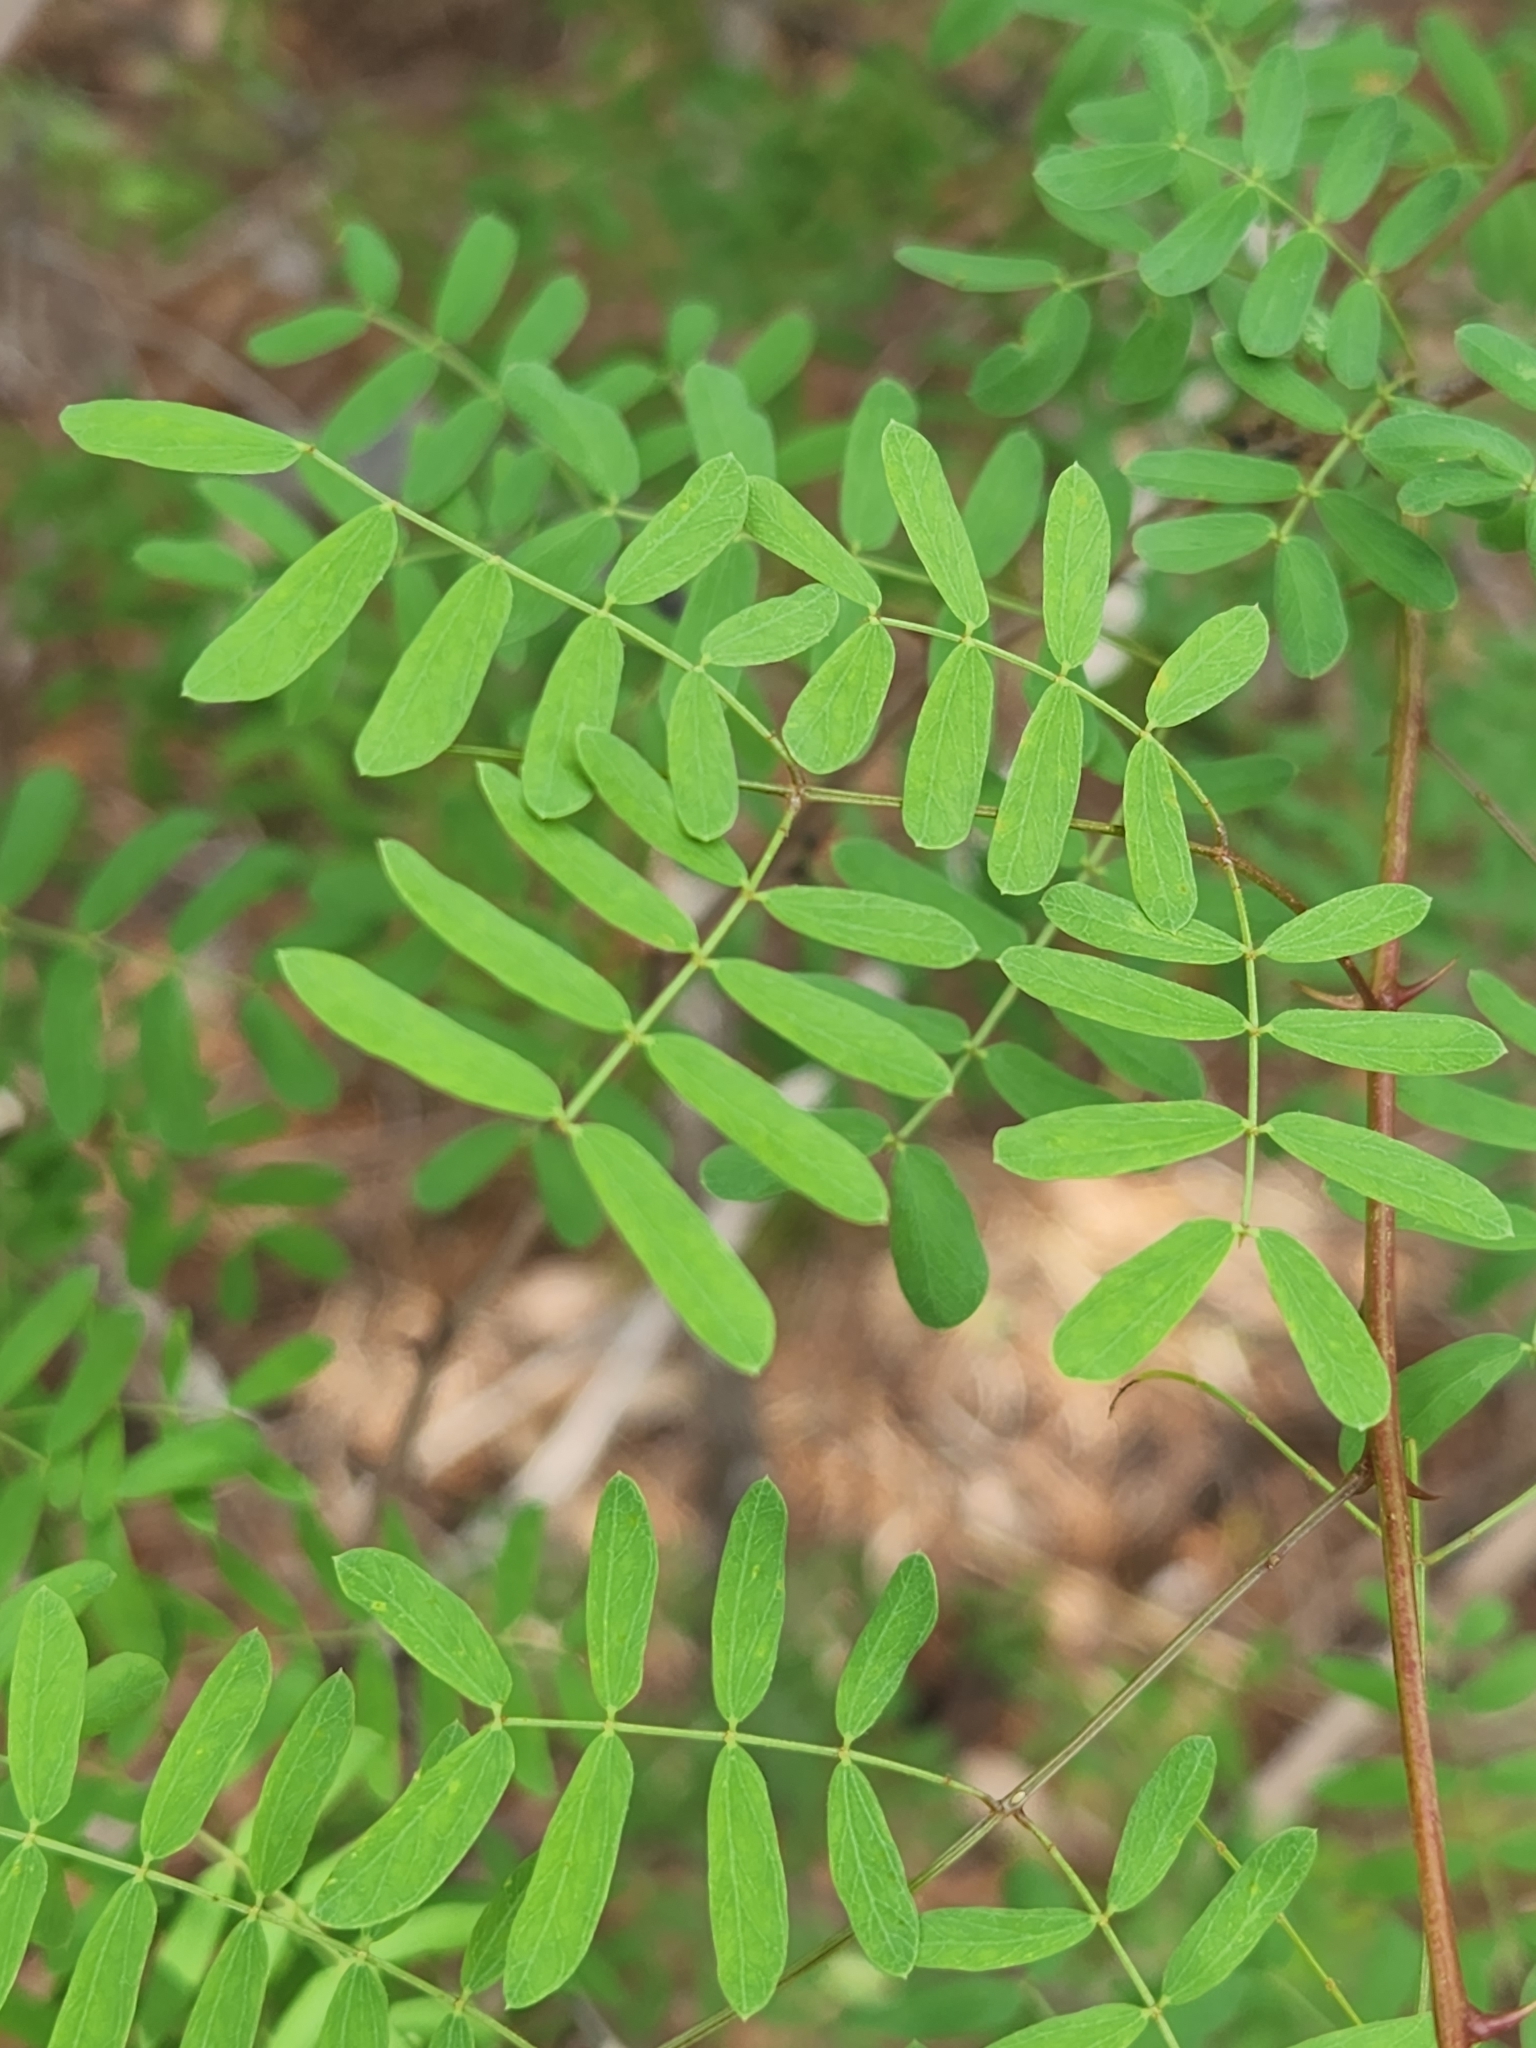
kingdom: Plantae
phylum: Tracheophyta
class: Magnoliopsida
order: Fabales
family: Fabaceae
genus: Senegalia
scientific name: Senegalia roemeriana
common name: Roemer's acacia
